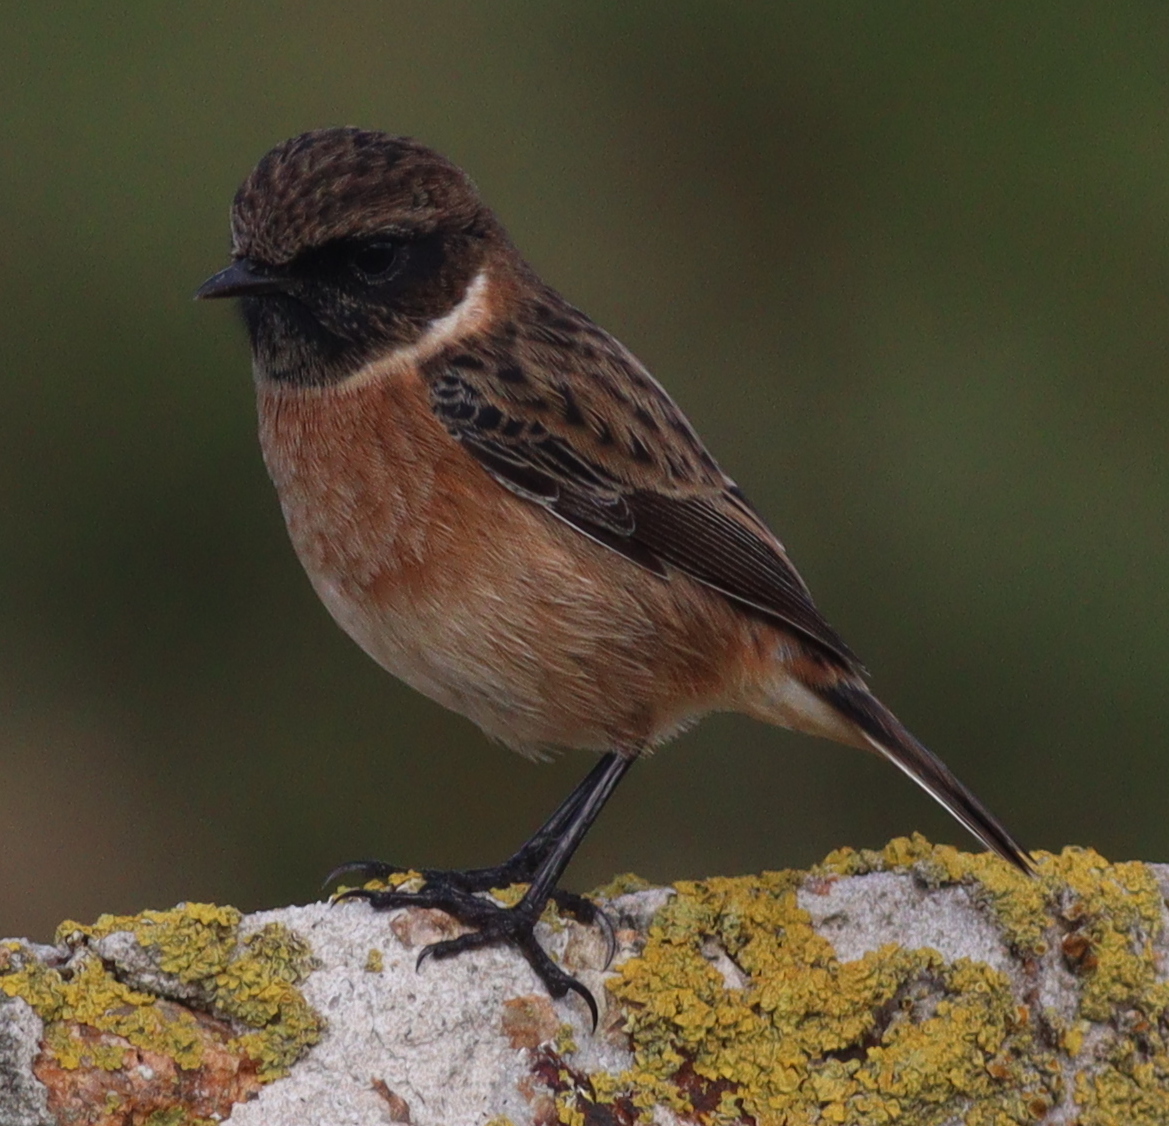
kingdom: Animalia
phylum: Chordata
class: Aves
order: Passeriformes
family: Muscicapidae
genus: Saxicola
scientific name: Saxicola rubicola
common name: European stonechat
